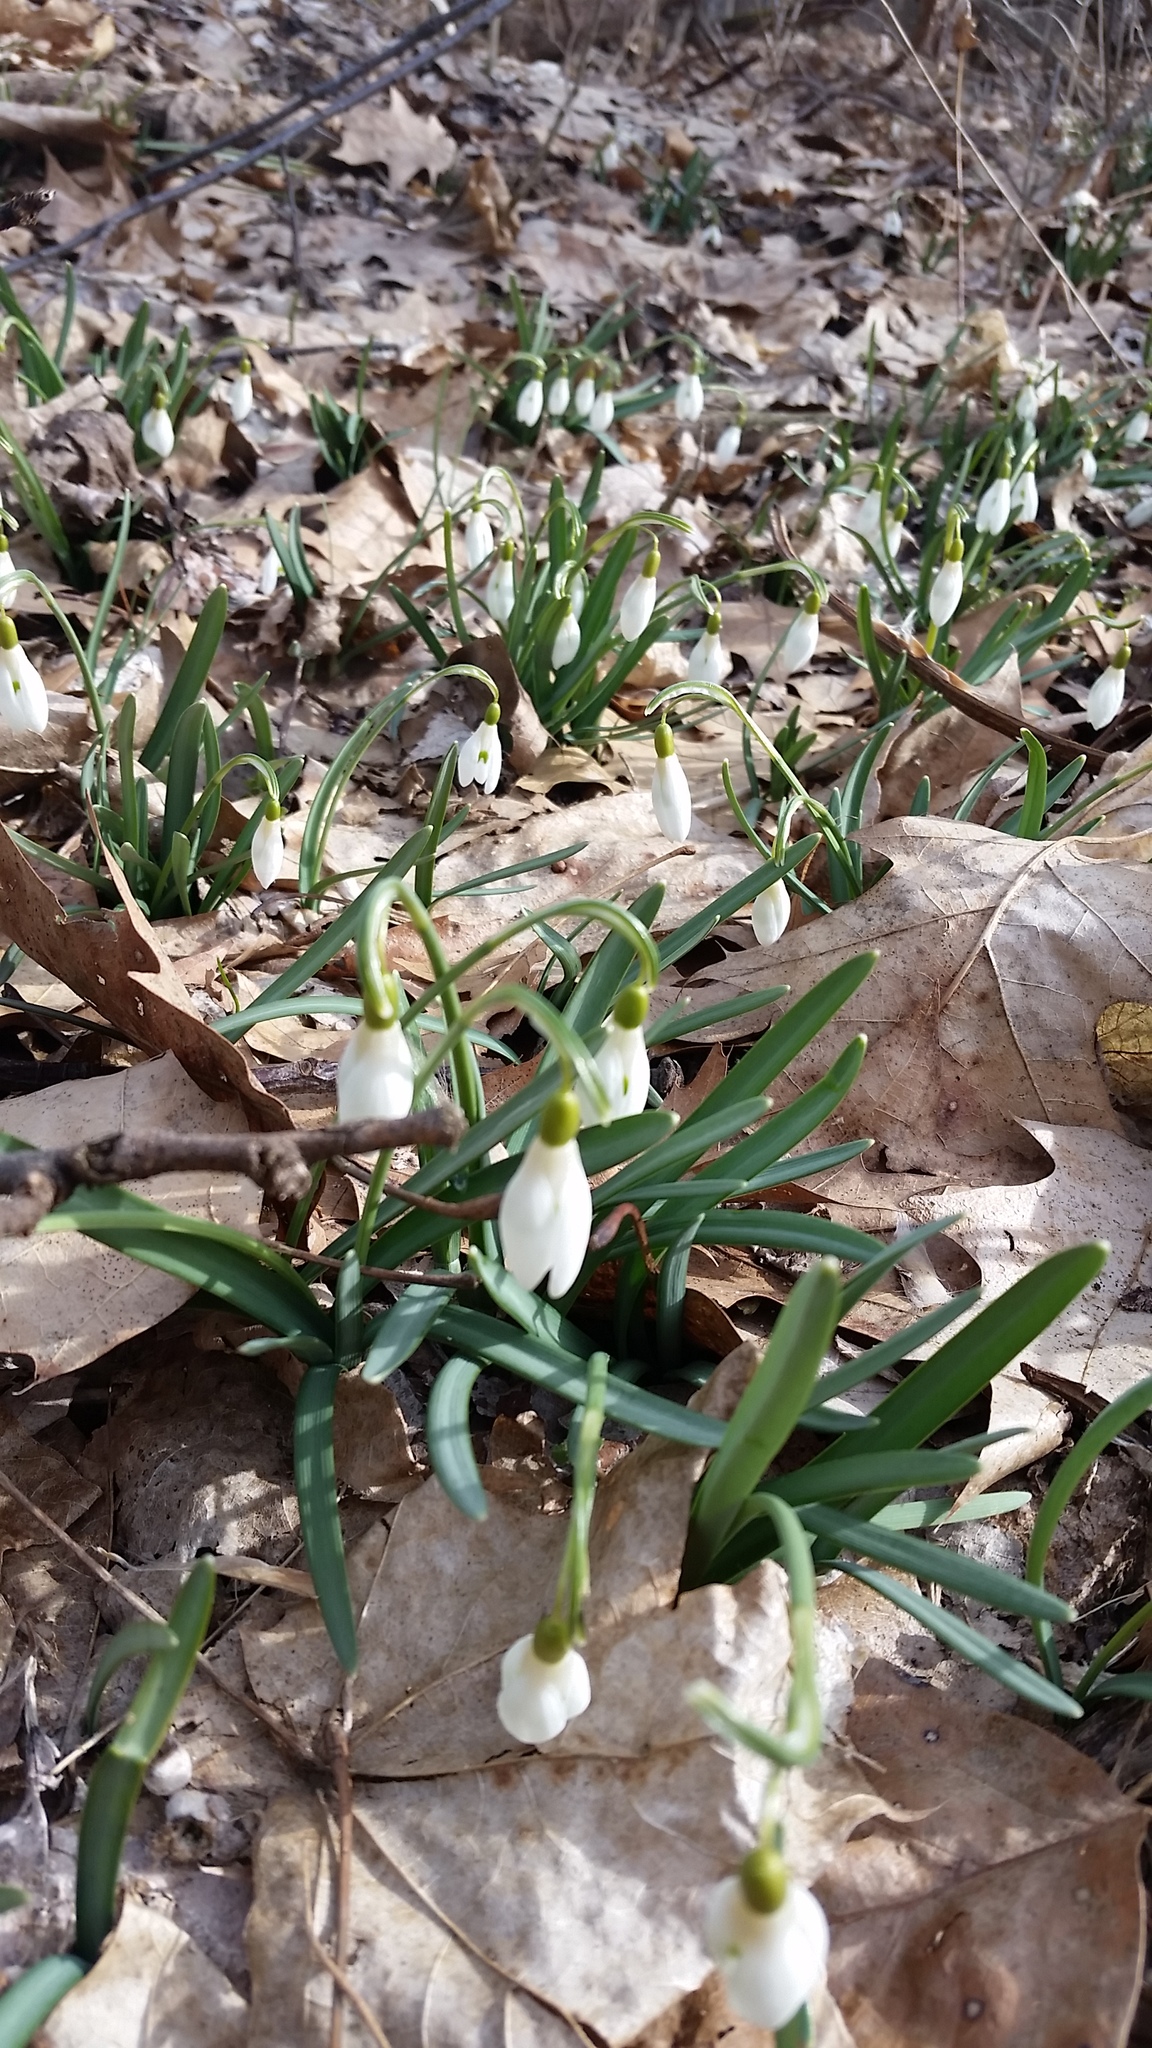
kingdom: Plantae
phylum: Tracheophyta
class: Liliopsida
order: Asparagales
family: Amaryllidaceae
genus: Galanthus
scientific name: Galanthus nivalis
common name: Snowdrop
